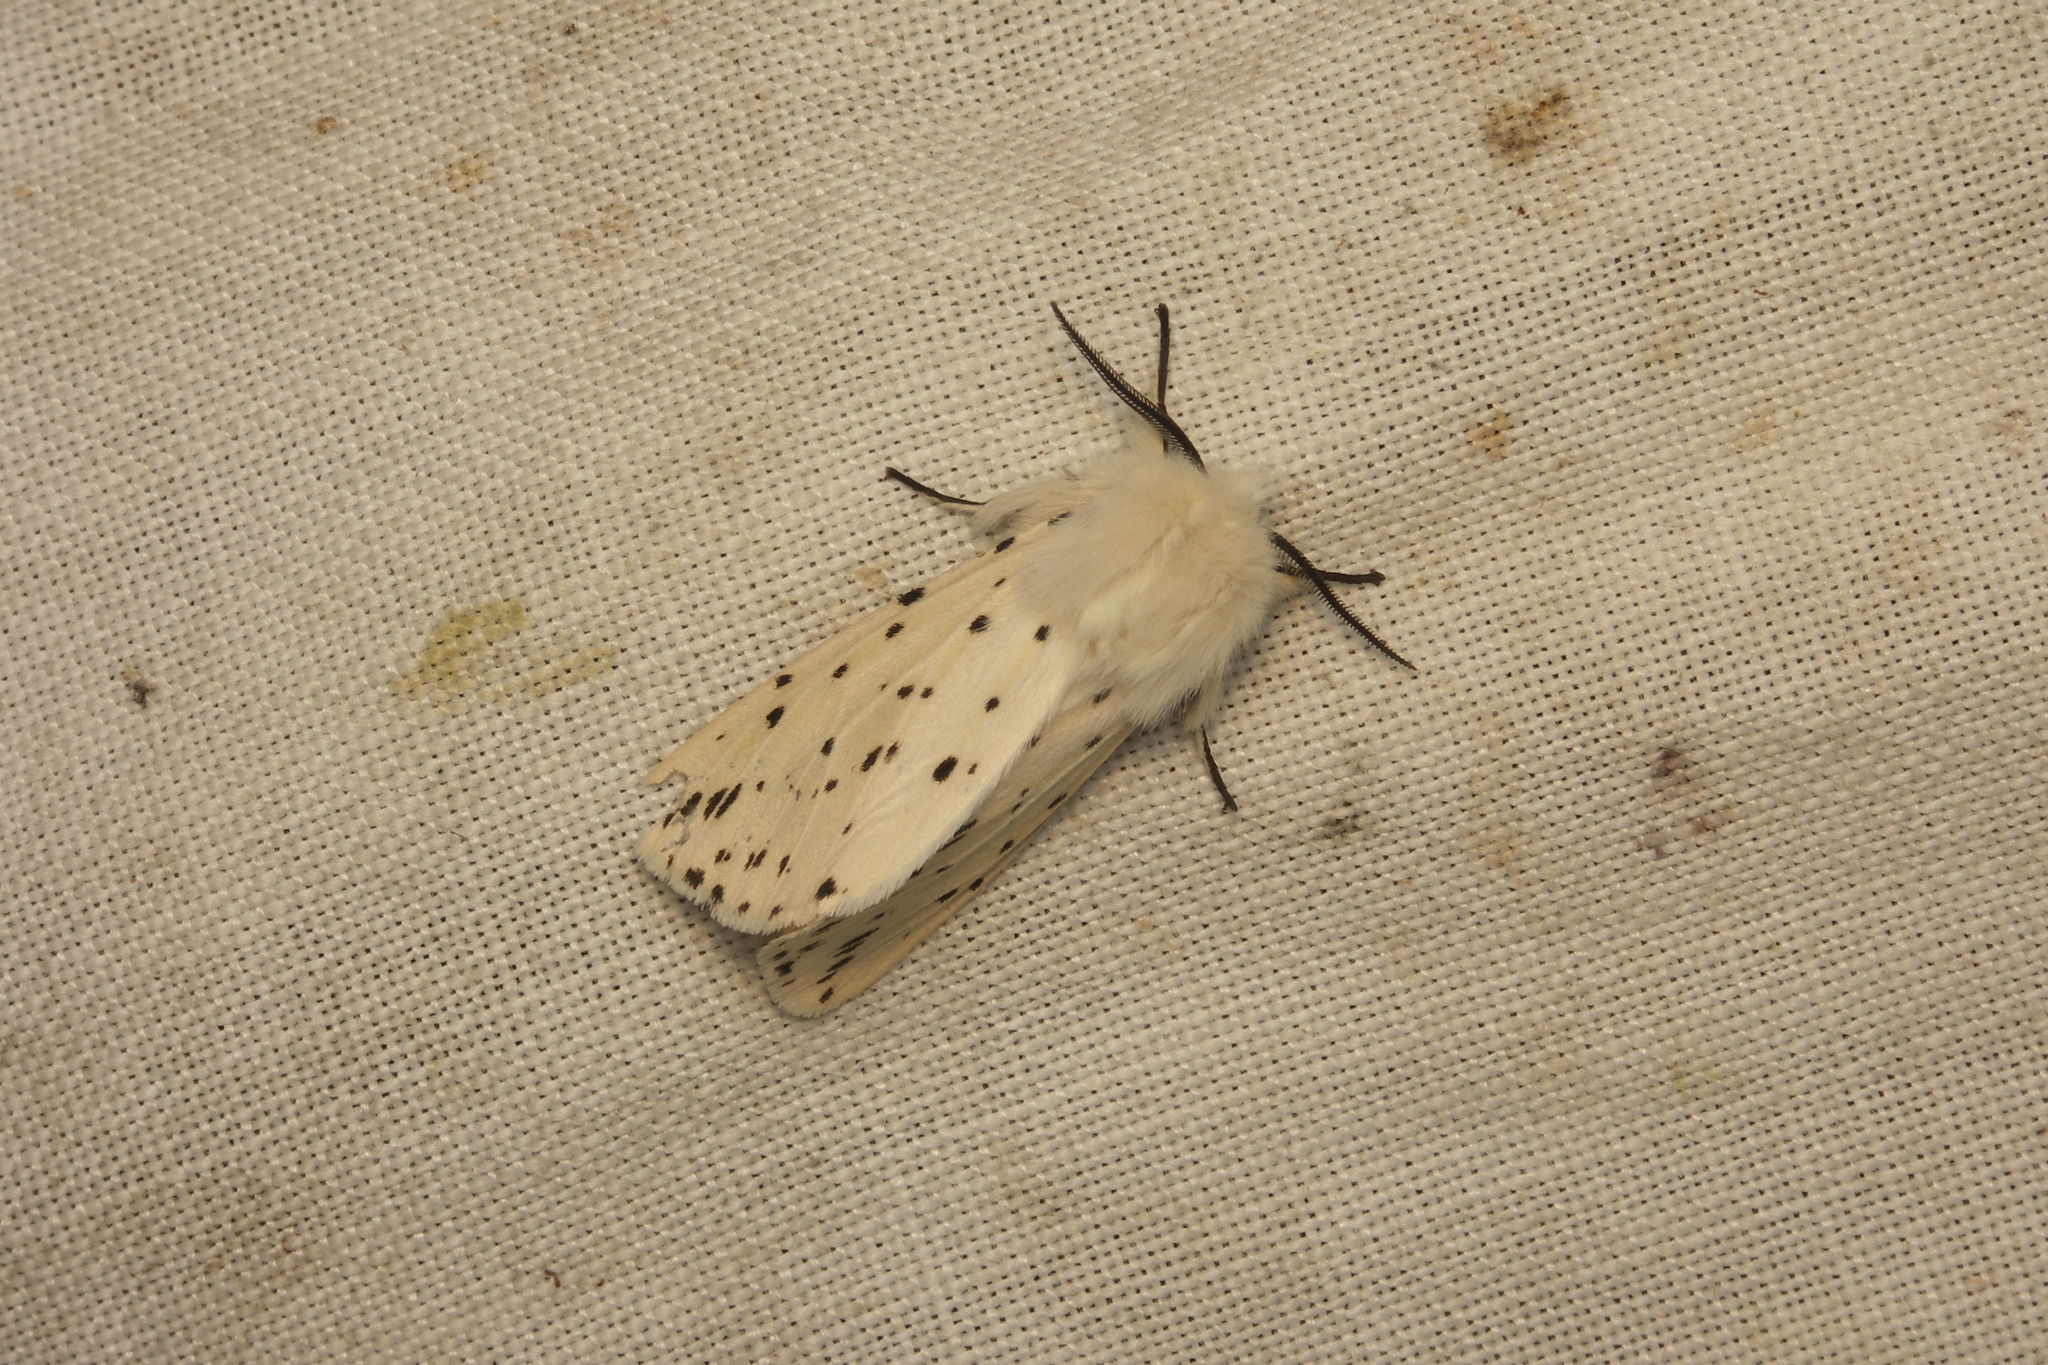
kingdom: Animalia
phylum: Arthropoda
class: Insecta
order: Lepidoptera
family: Erebidae
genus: Spilosoma
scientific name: Spilosoma lubricipeda
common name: White ermine
